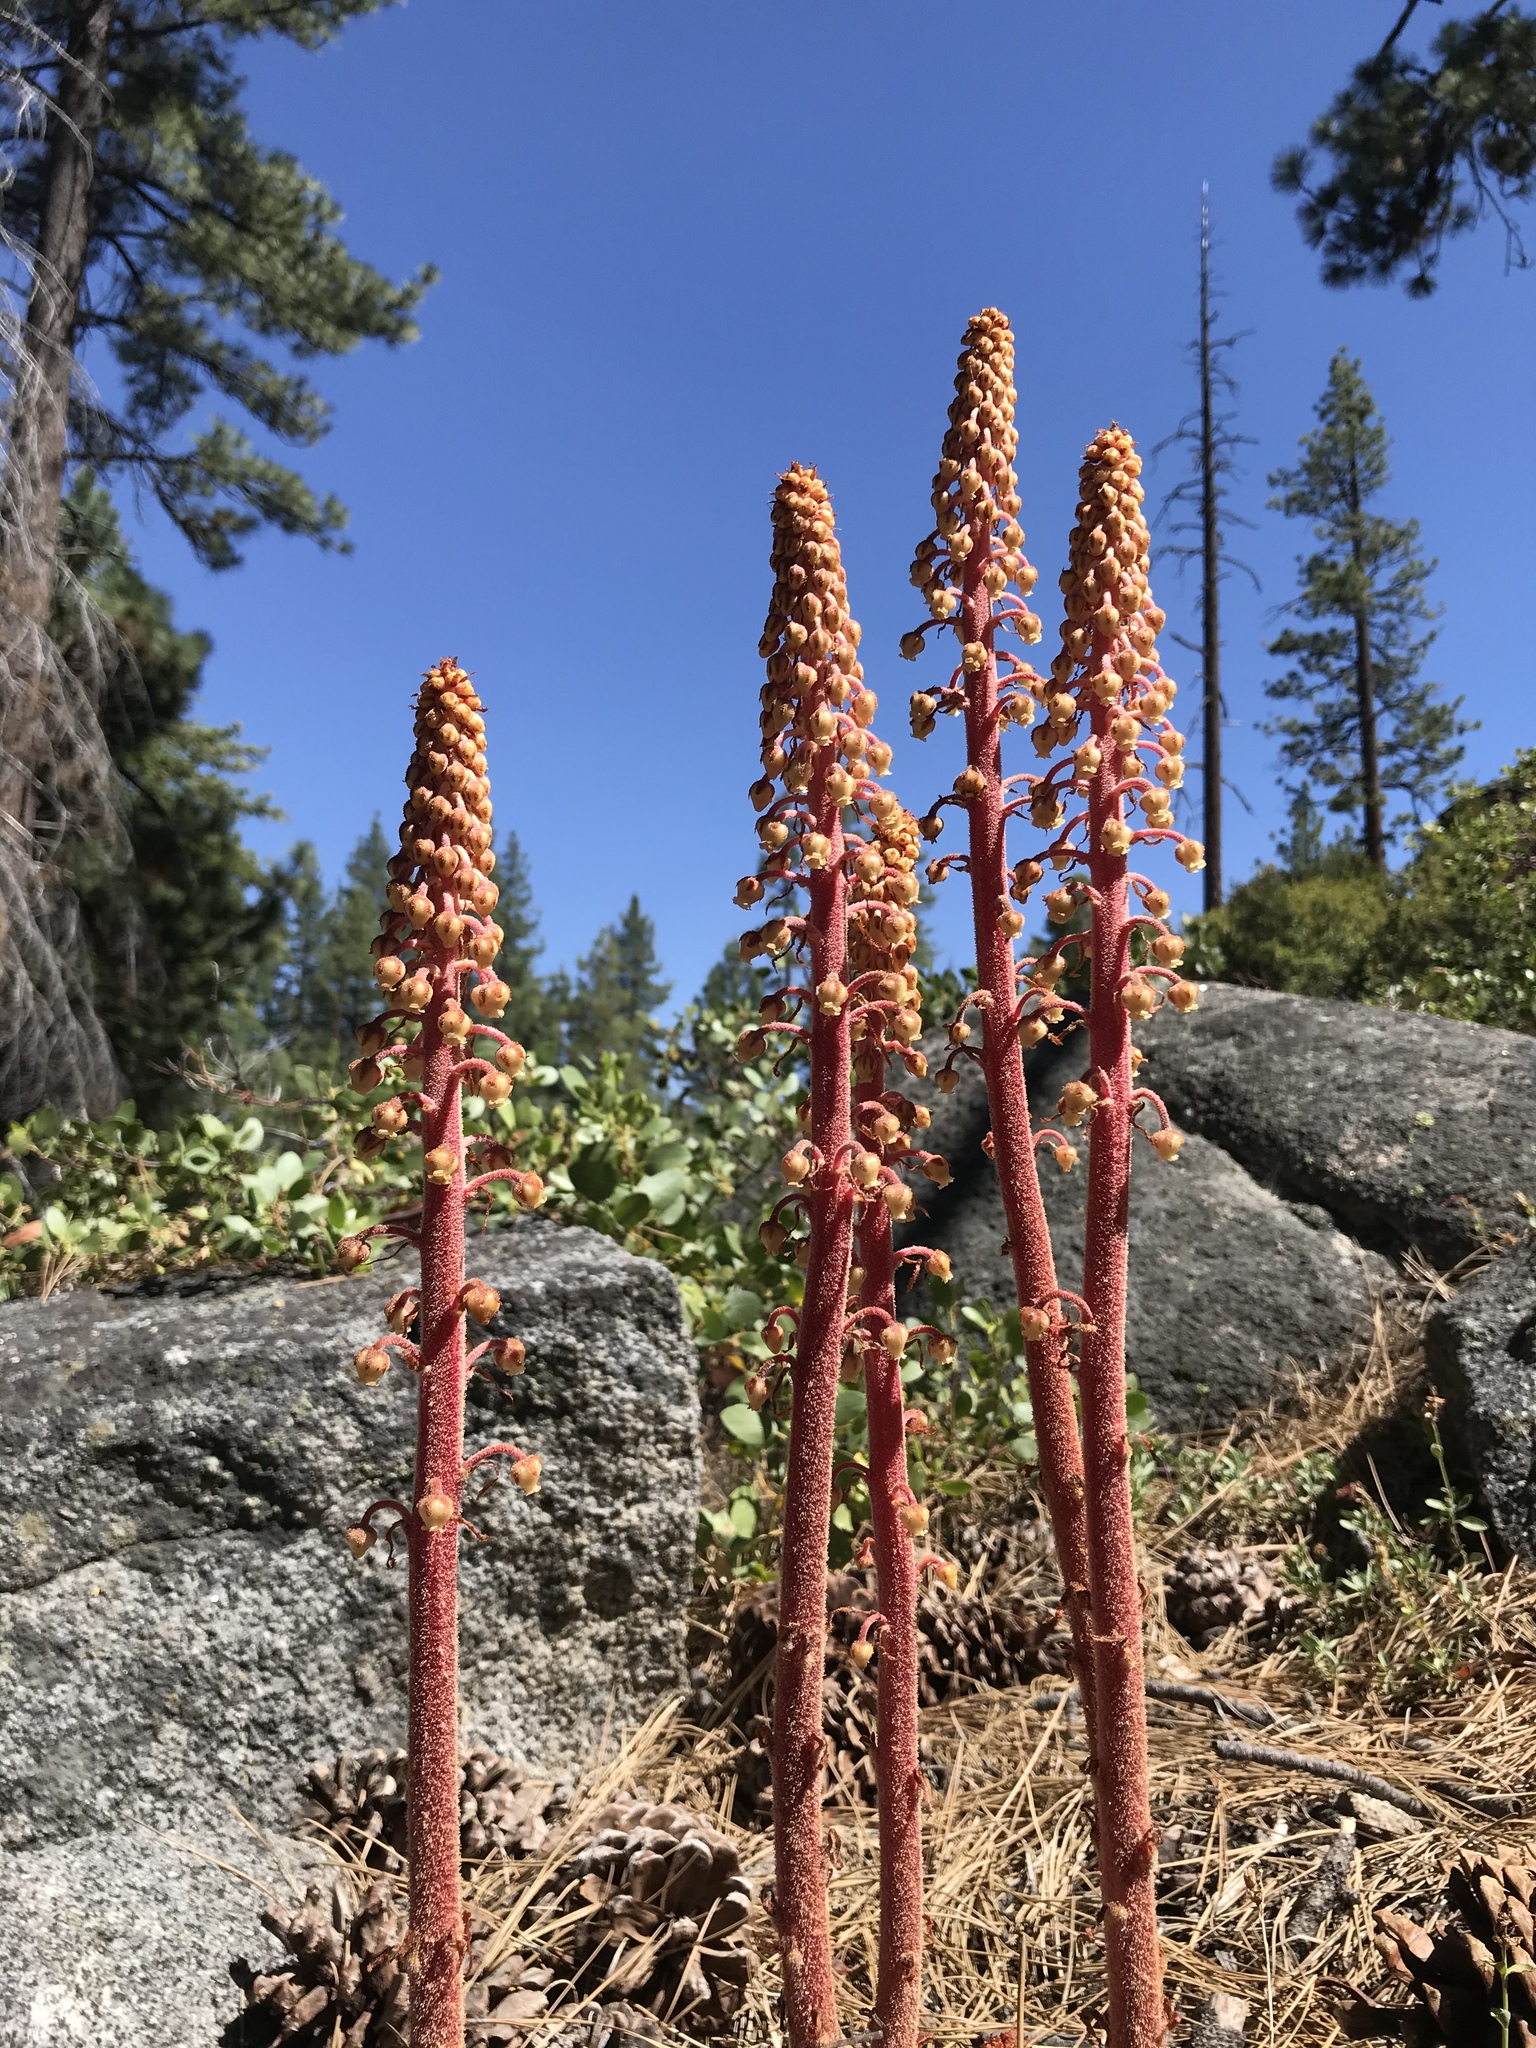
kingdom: Plantae
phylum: Tracheophyta
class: Magnoliopsida
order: Ericales
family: Ericaceae
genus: Pterospora
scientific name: Pterospora andromedea
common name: Giant bird's-nest
